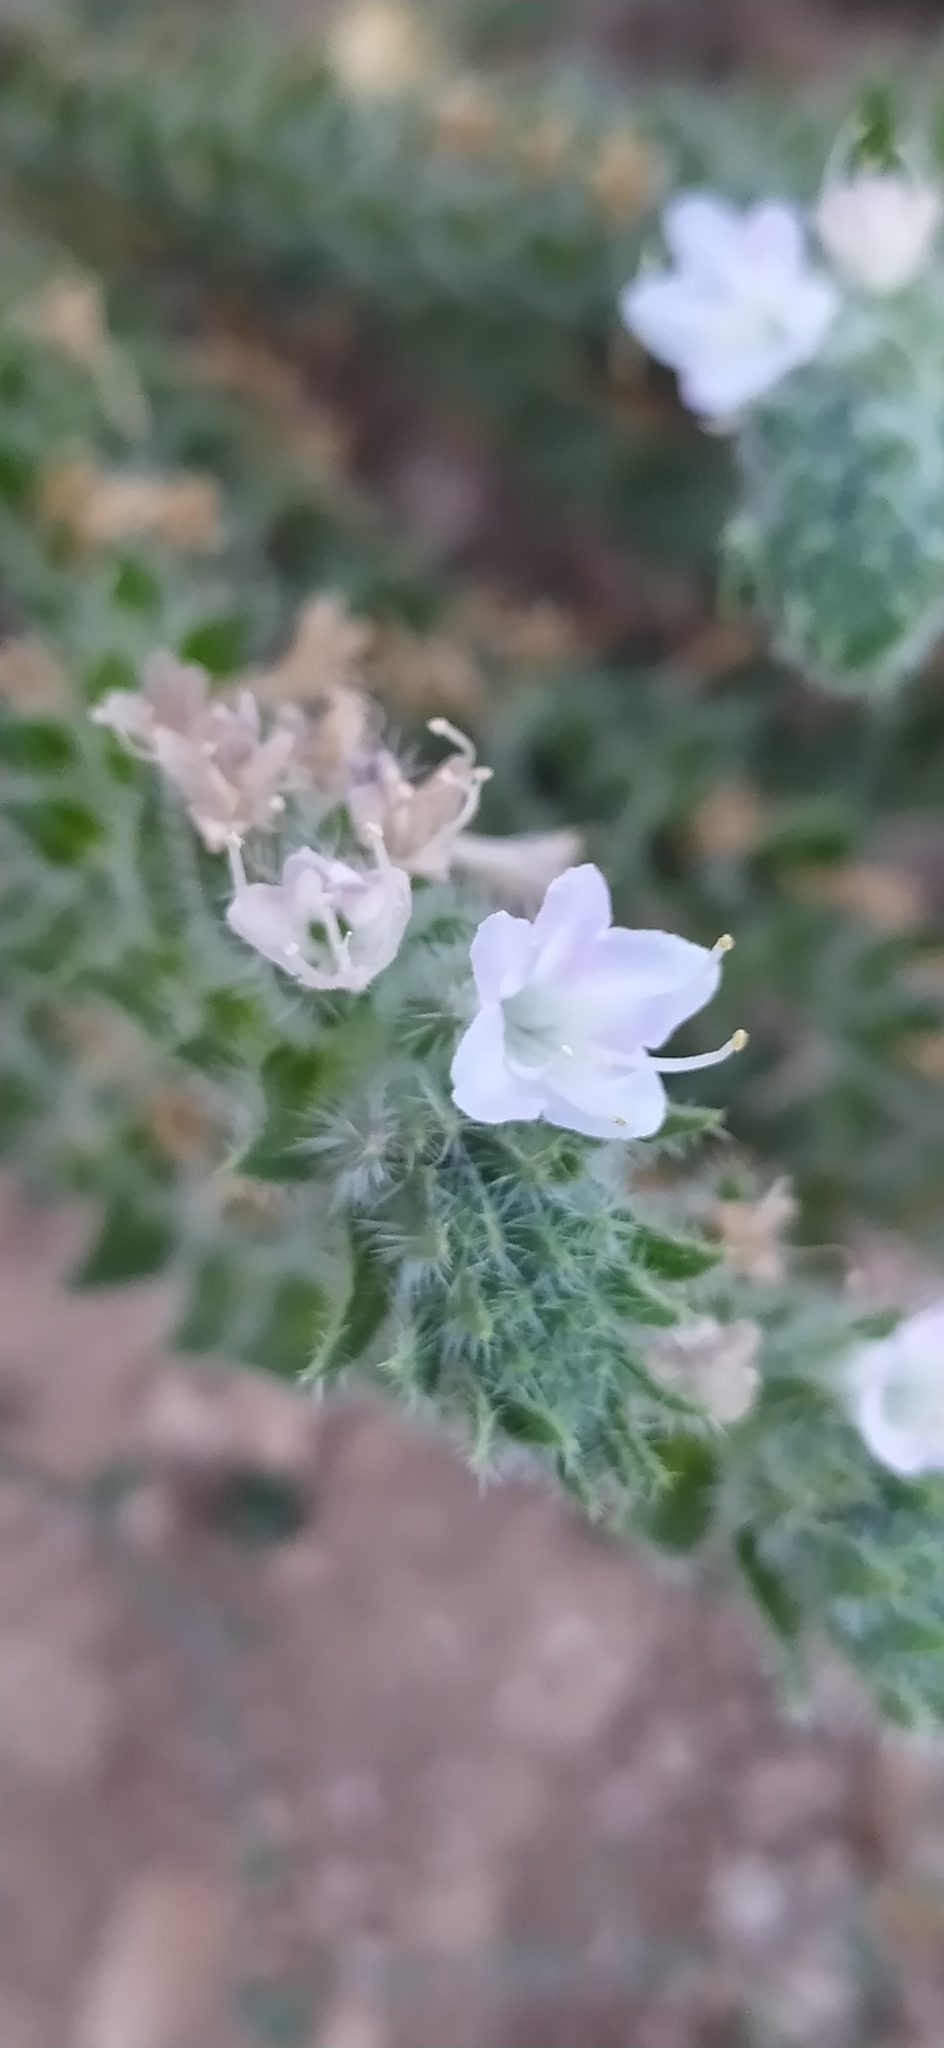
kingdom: Plantae
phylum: Tracheophyta
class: Magnoliopsida
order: Boraginales
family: Boraginaceae
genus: Echium
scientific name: Echium italicum
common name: Italian viper's bugloss
